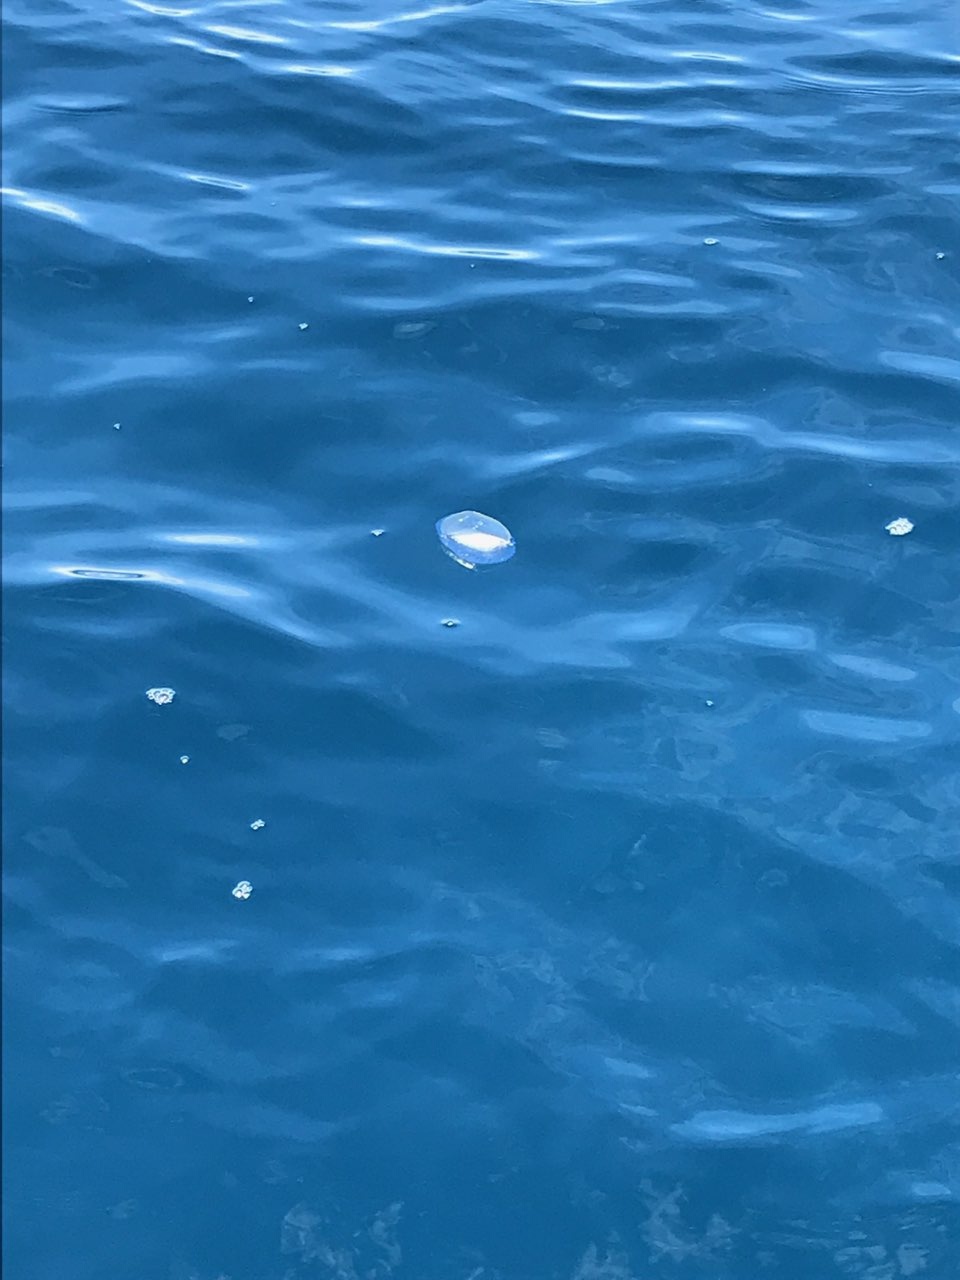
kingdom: Animalia
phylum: Cnidaria
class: Hydrozoa
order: Anthoathecata
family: Porpitidae
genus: Velella
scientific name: Velella velella
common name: By-the-wind-sailor
